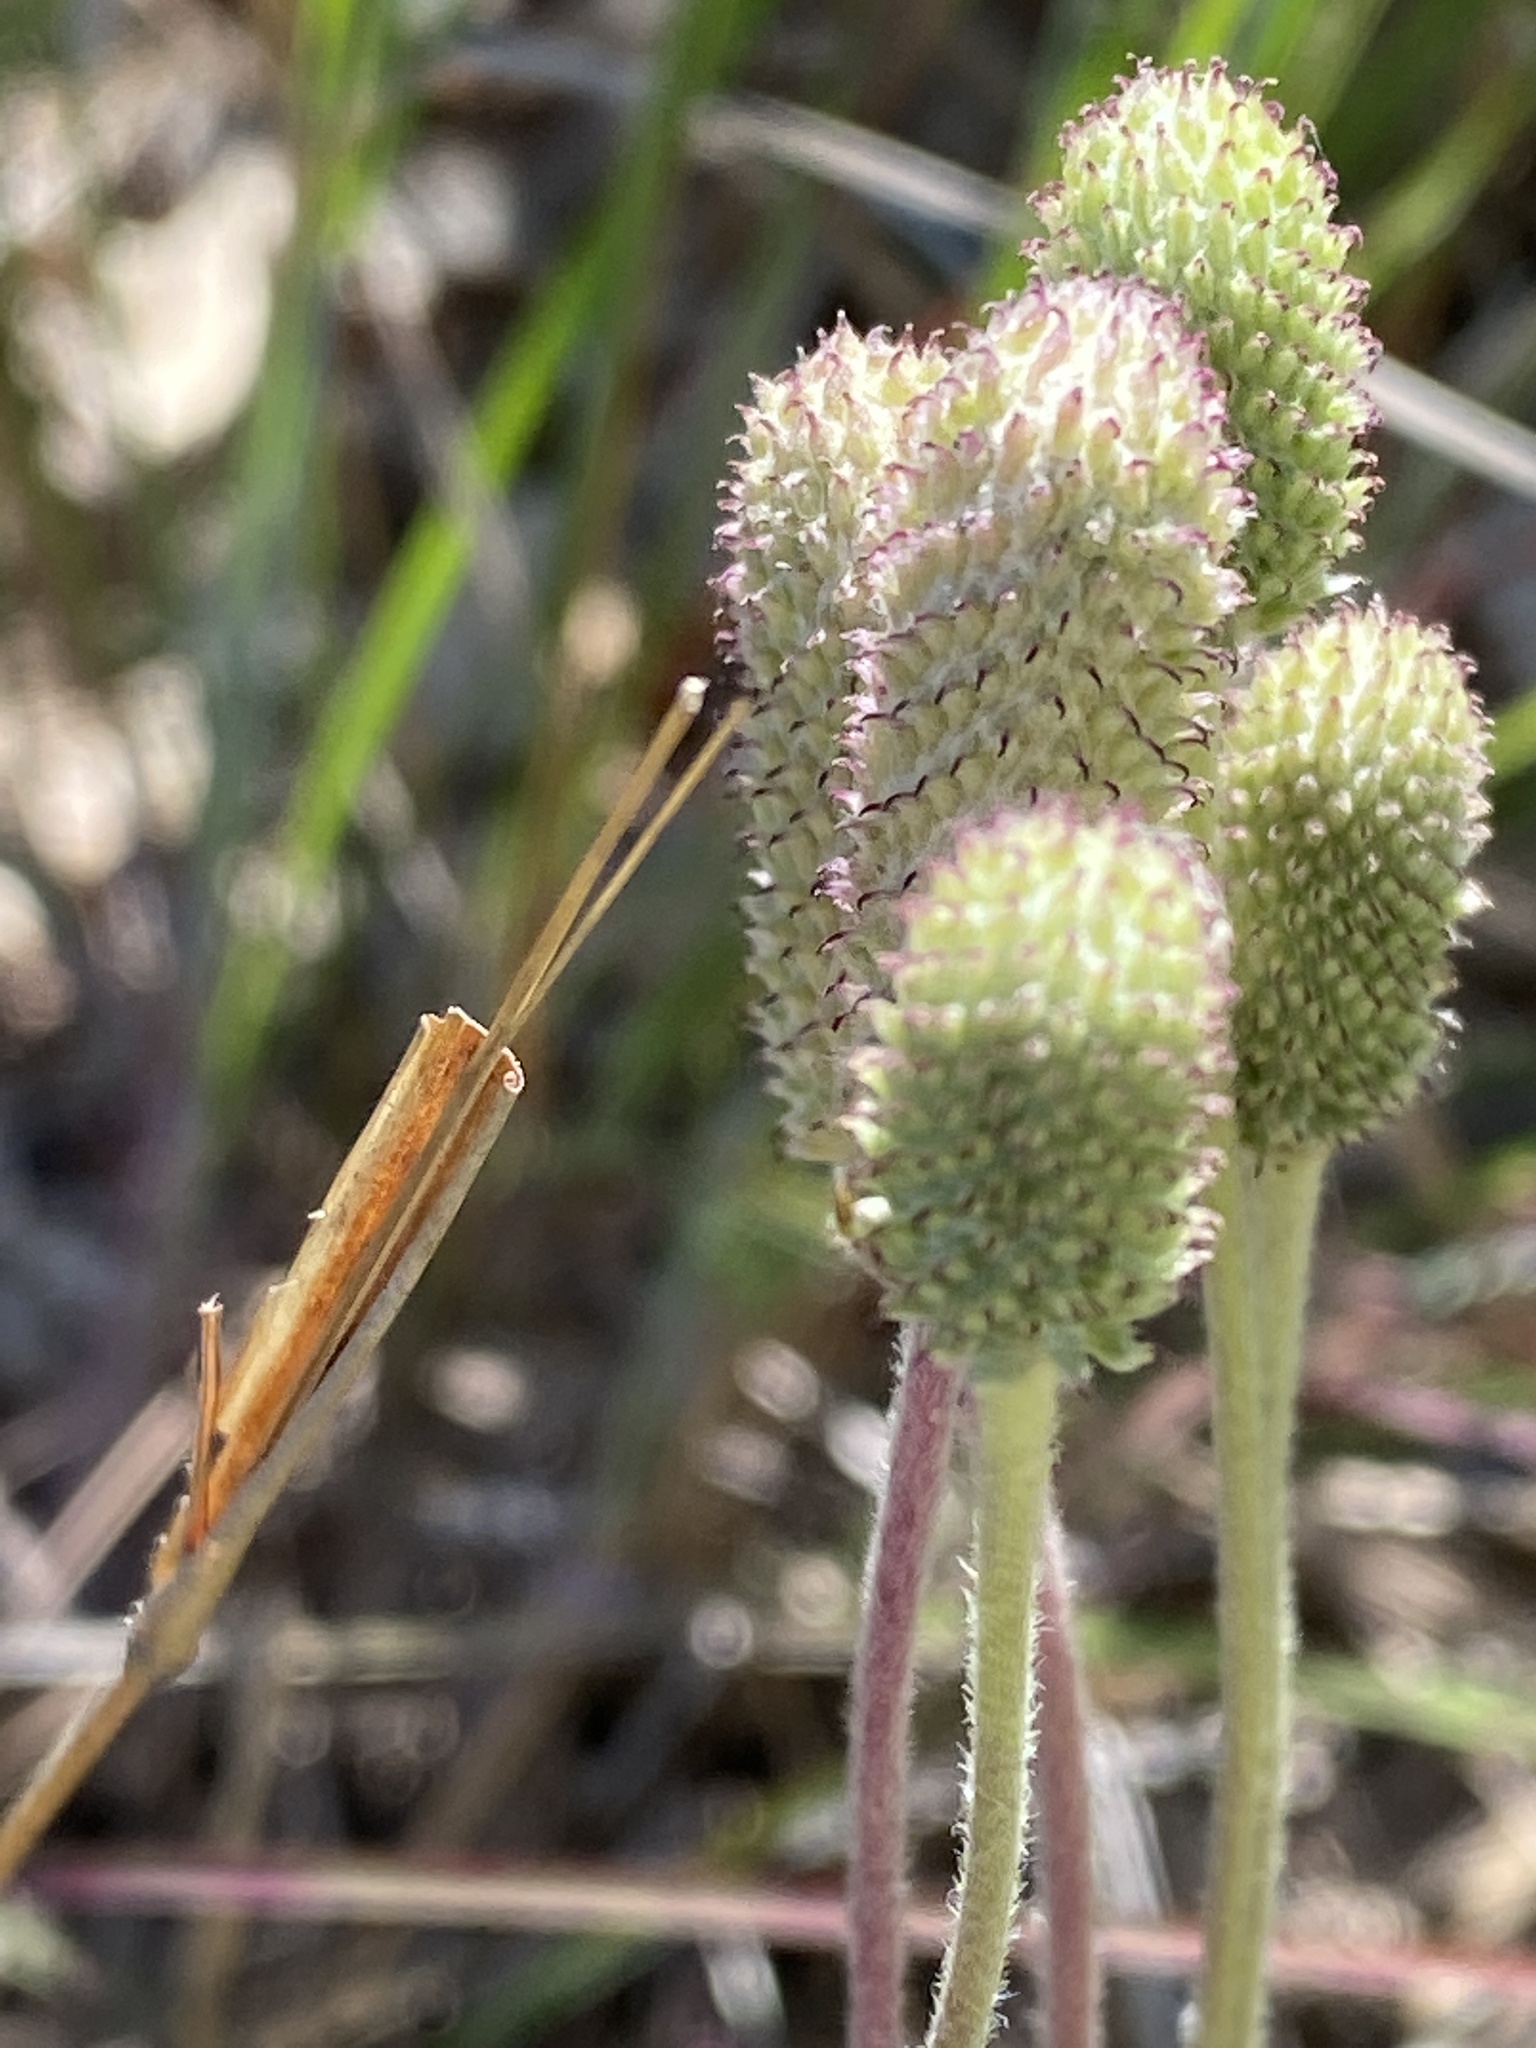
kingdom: Plantae
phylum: Tracheophyta
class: Magnoliopsida
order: Ranunculales
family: Ranunculaceae
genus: Anemone
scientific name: Anemone virginiana
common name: Tall anemone
